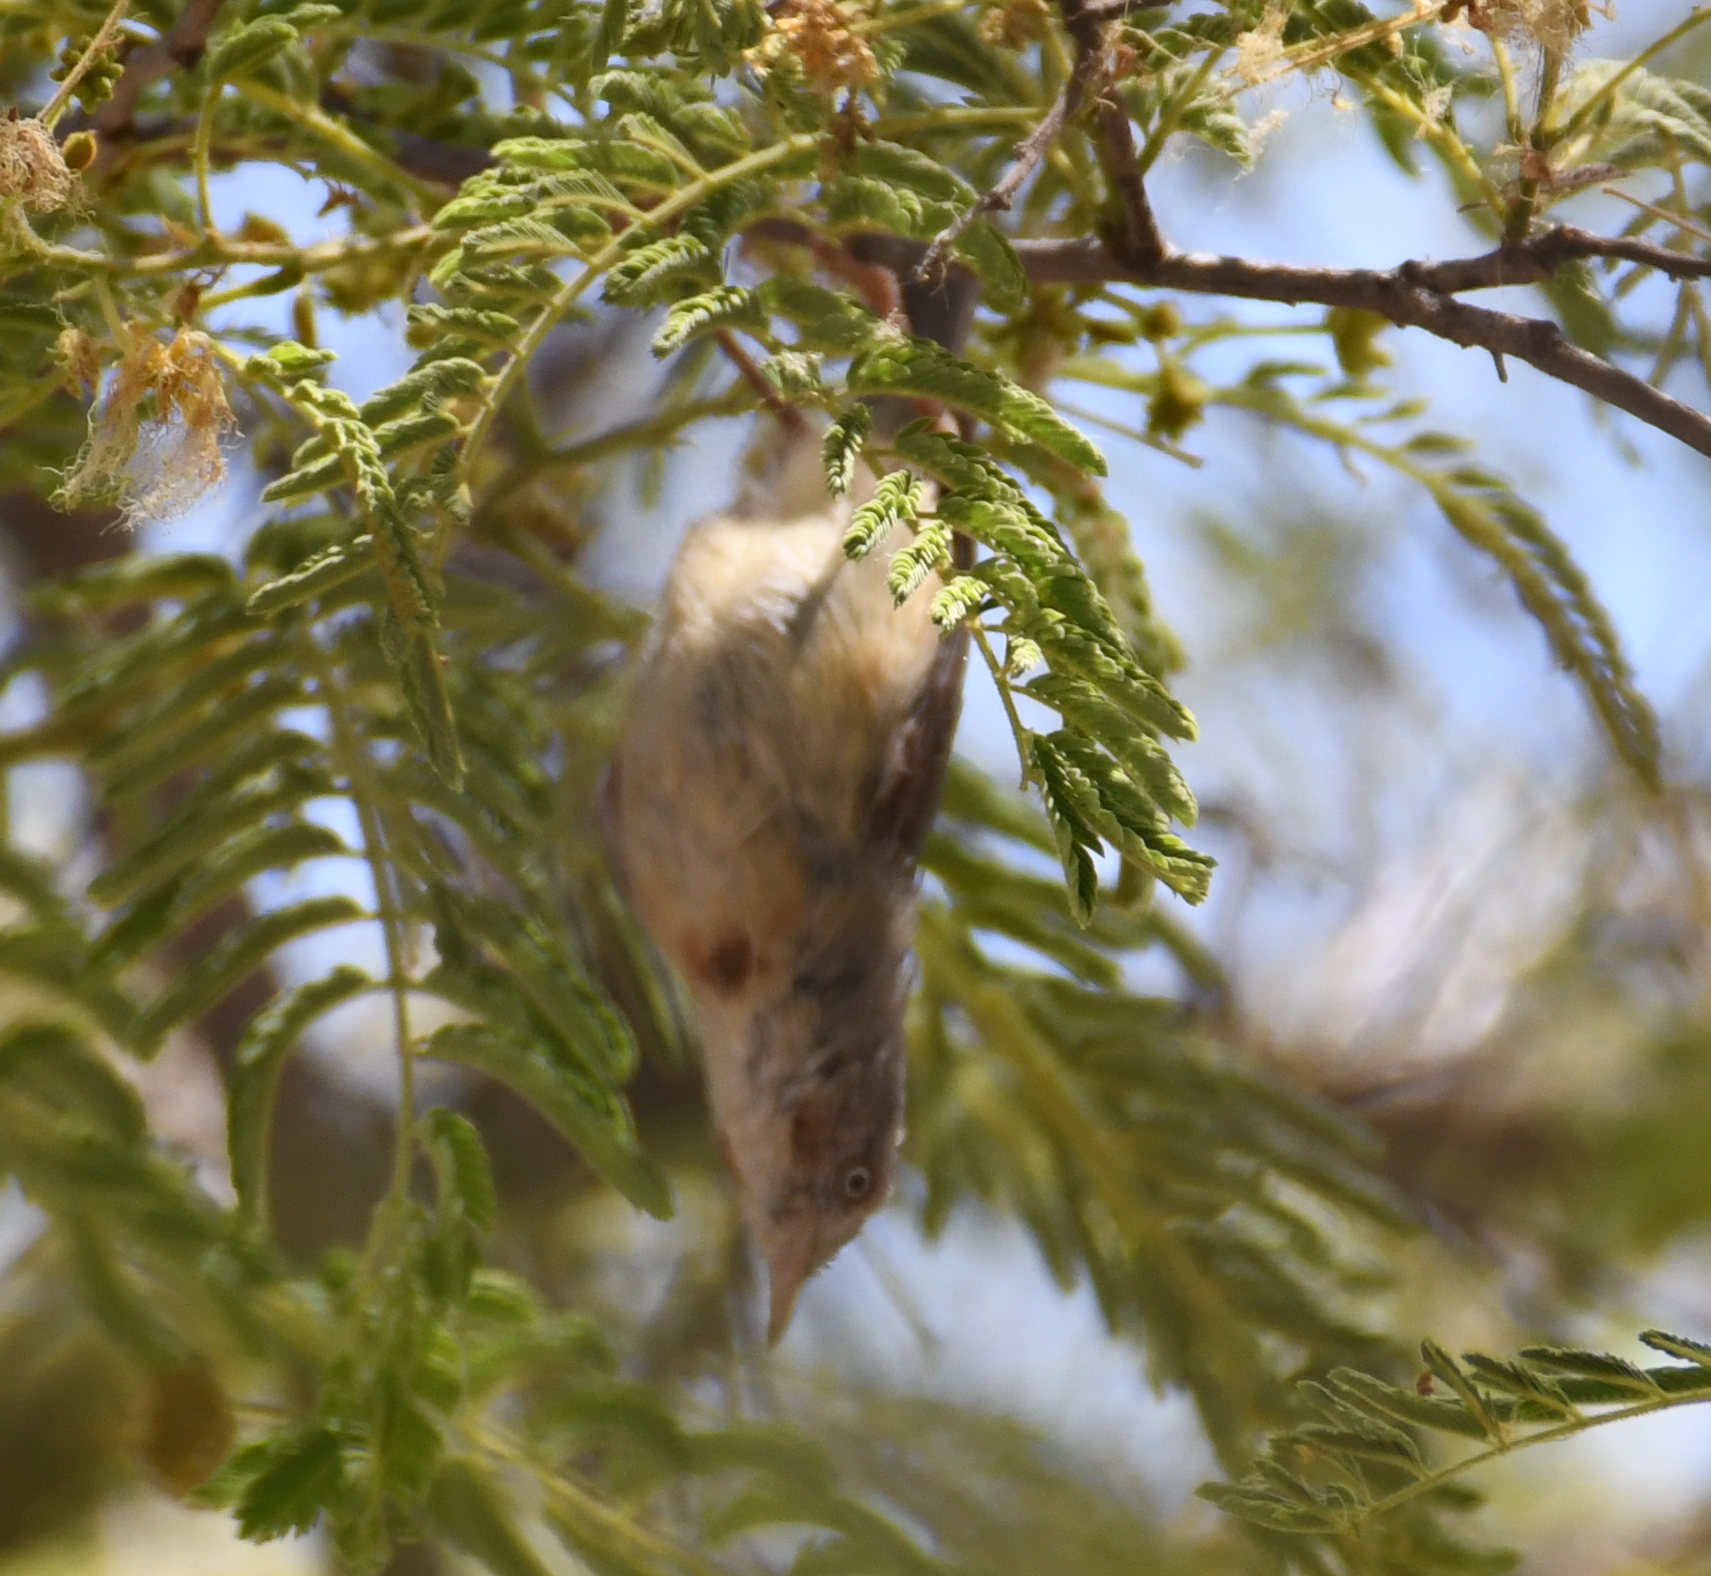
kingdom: Animalia
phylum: Chordata
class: Aves
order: Passeriformes
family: Cisticolidae
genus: Eremomela
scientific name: Eremomela usticollis
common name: Burnt-neck eremomela
